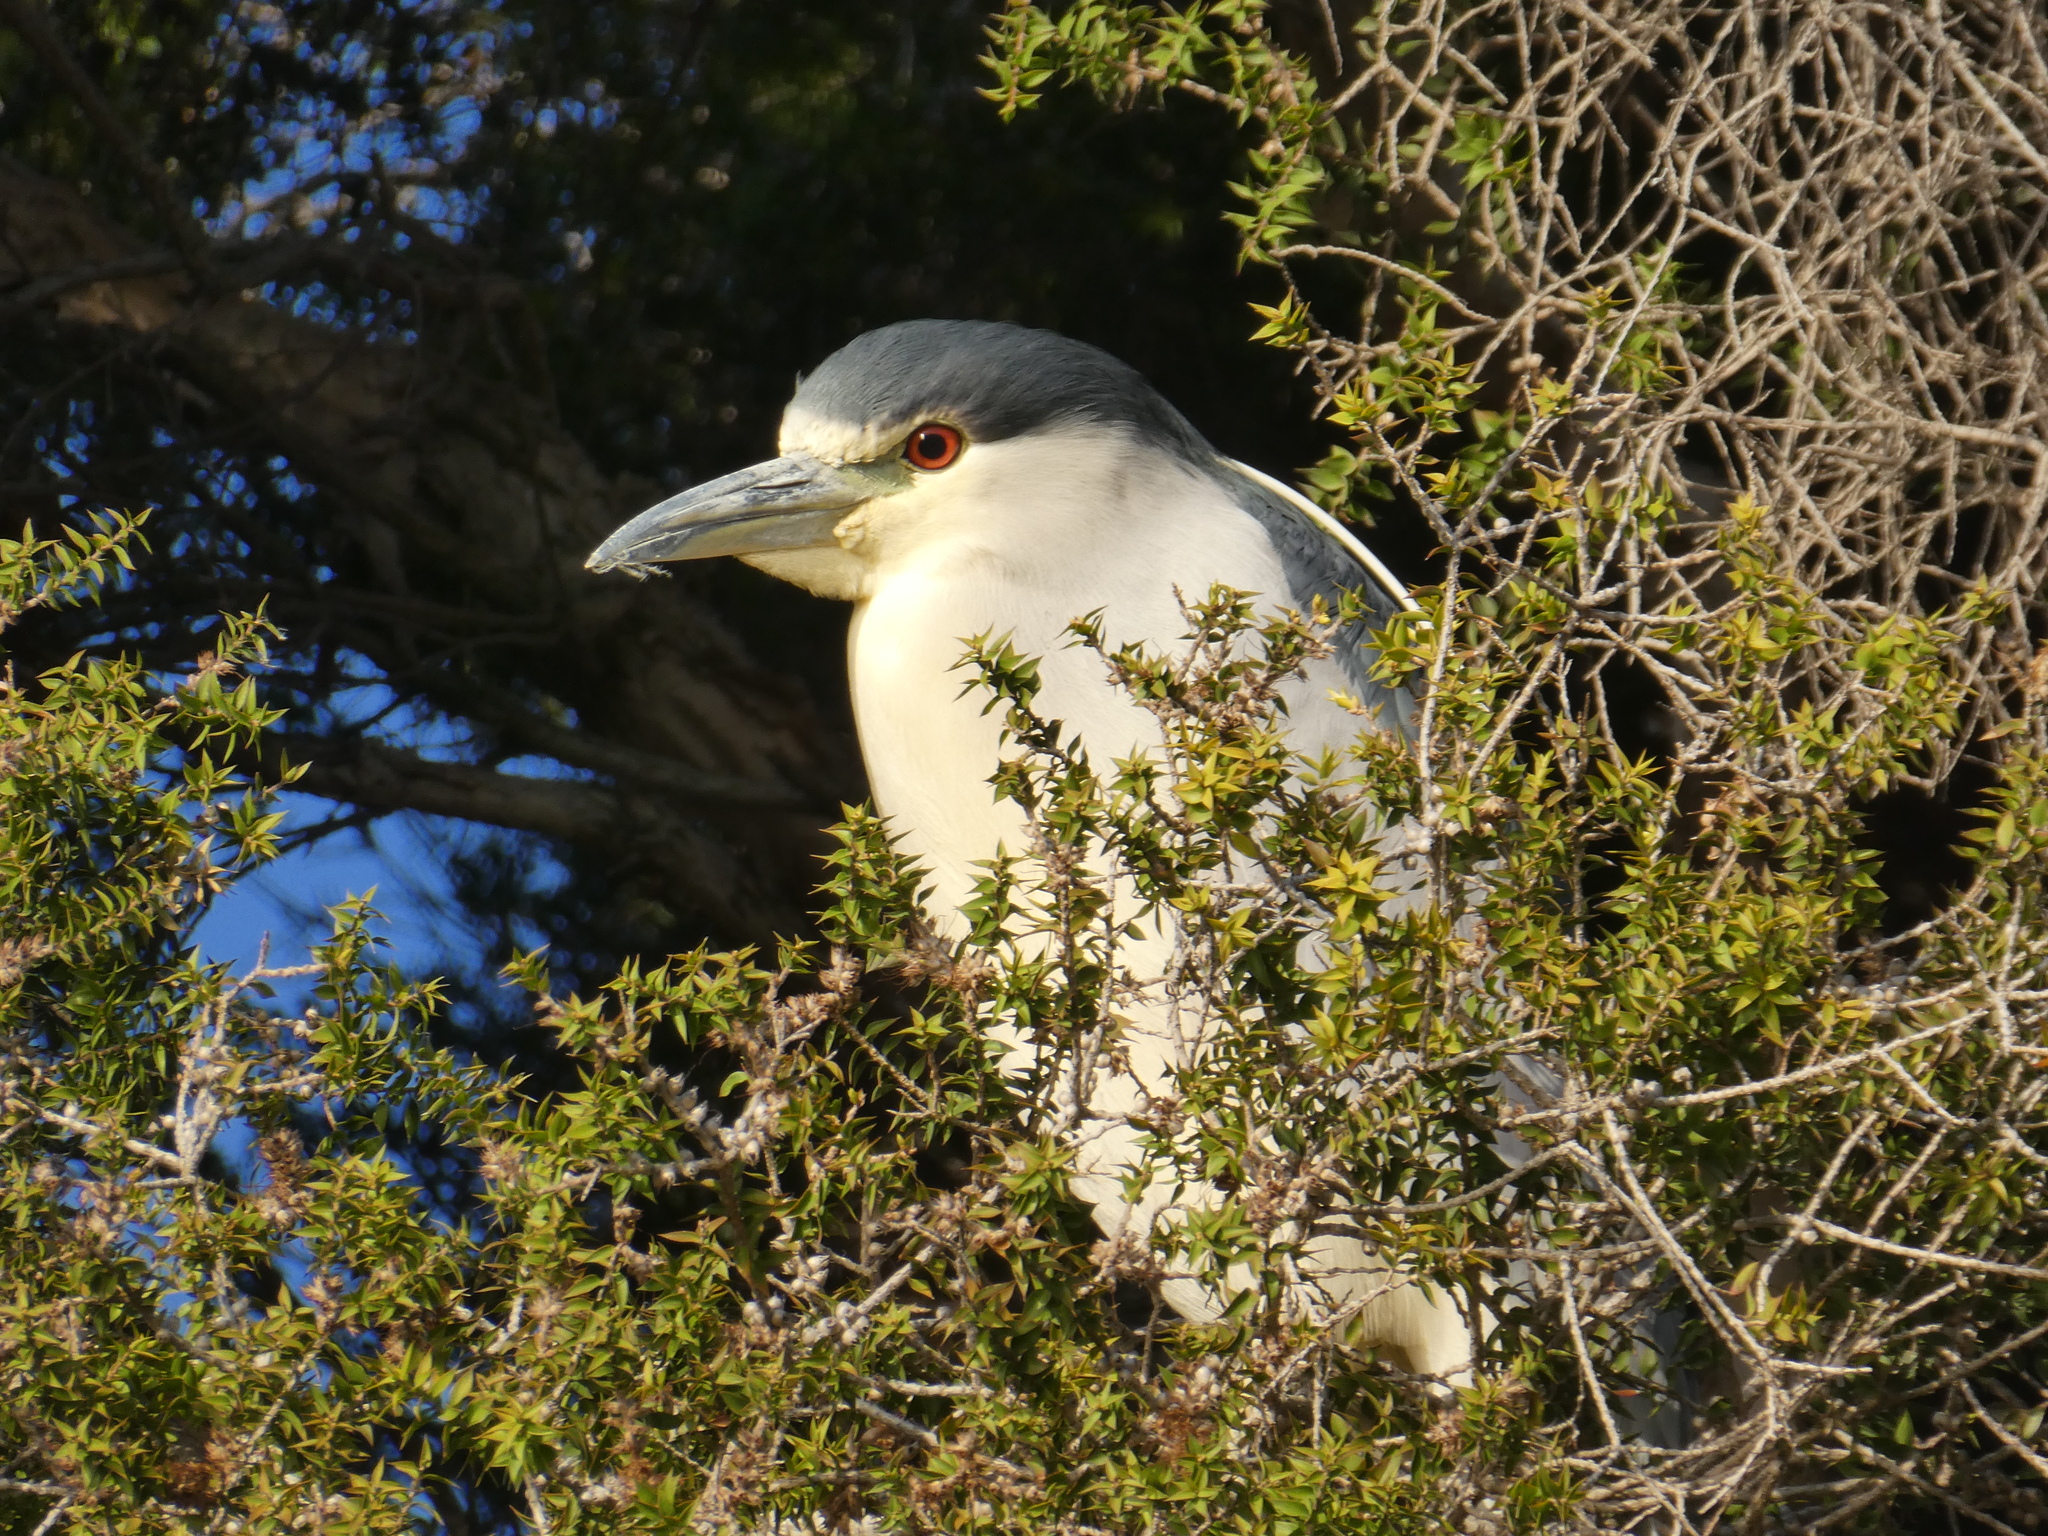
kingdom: Animalia
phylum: Chordata
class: Aves
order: Pelecaniformes
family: Ardeidae
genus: Nycticorax
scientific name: Nycticorax nycticorax
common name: Black-crowned night heron
